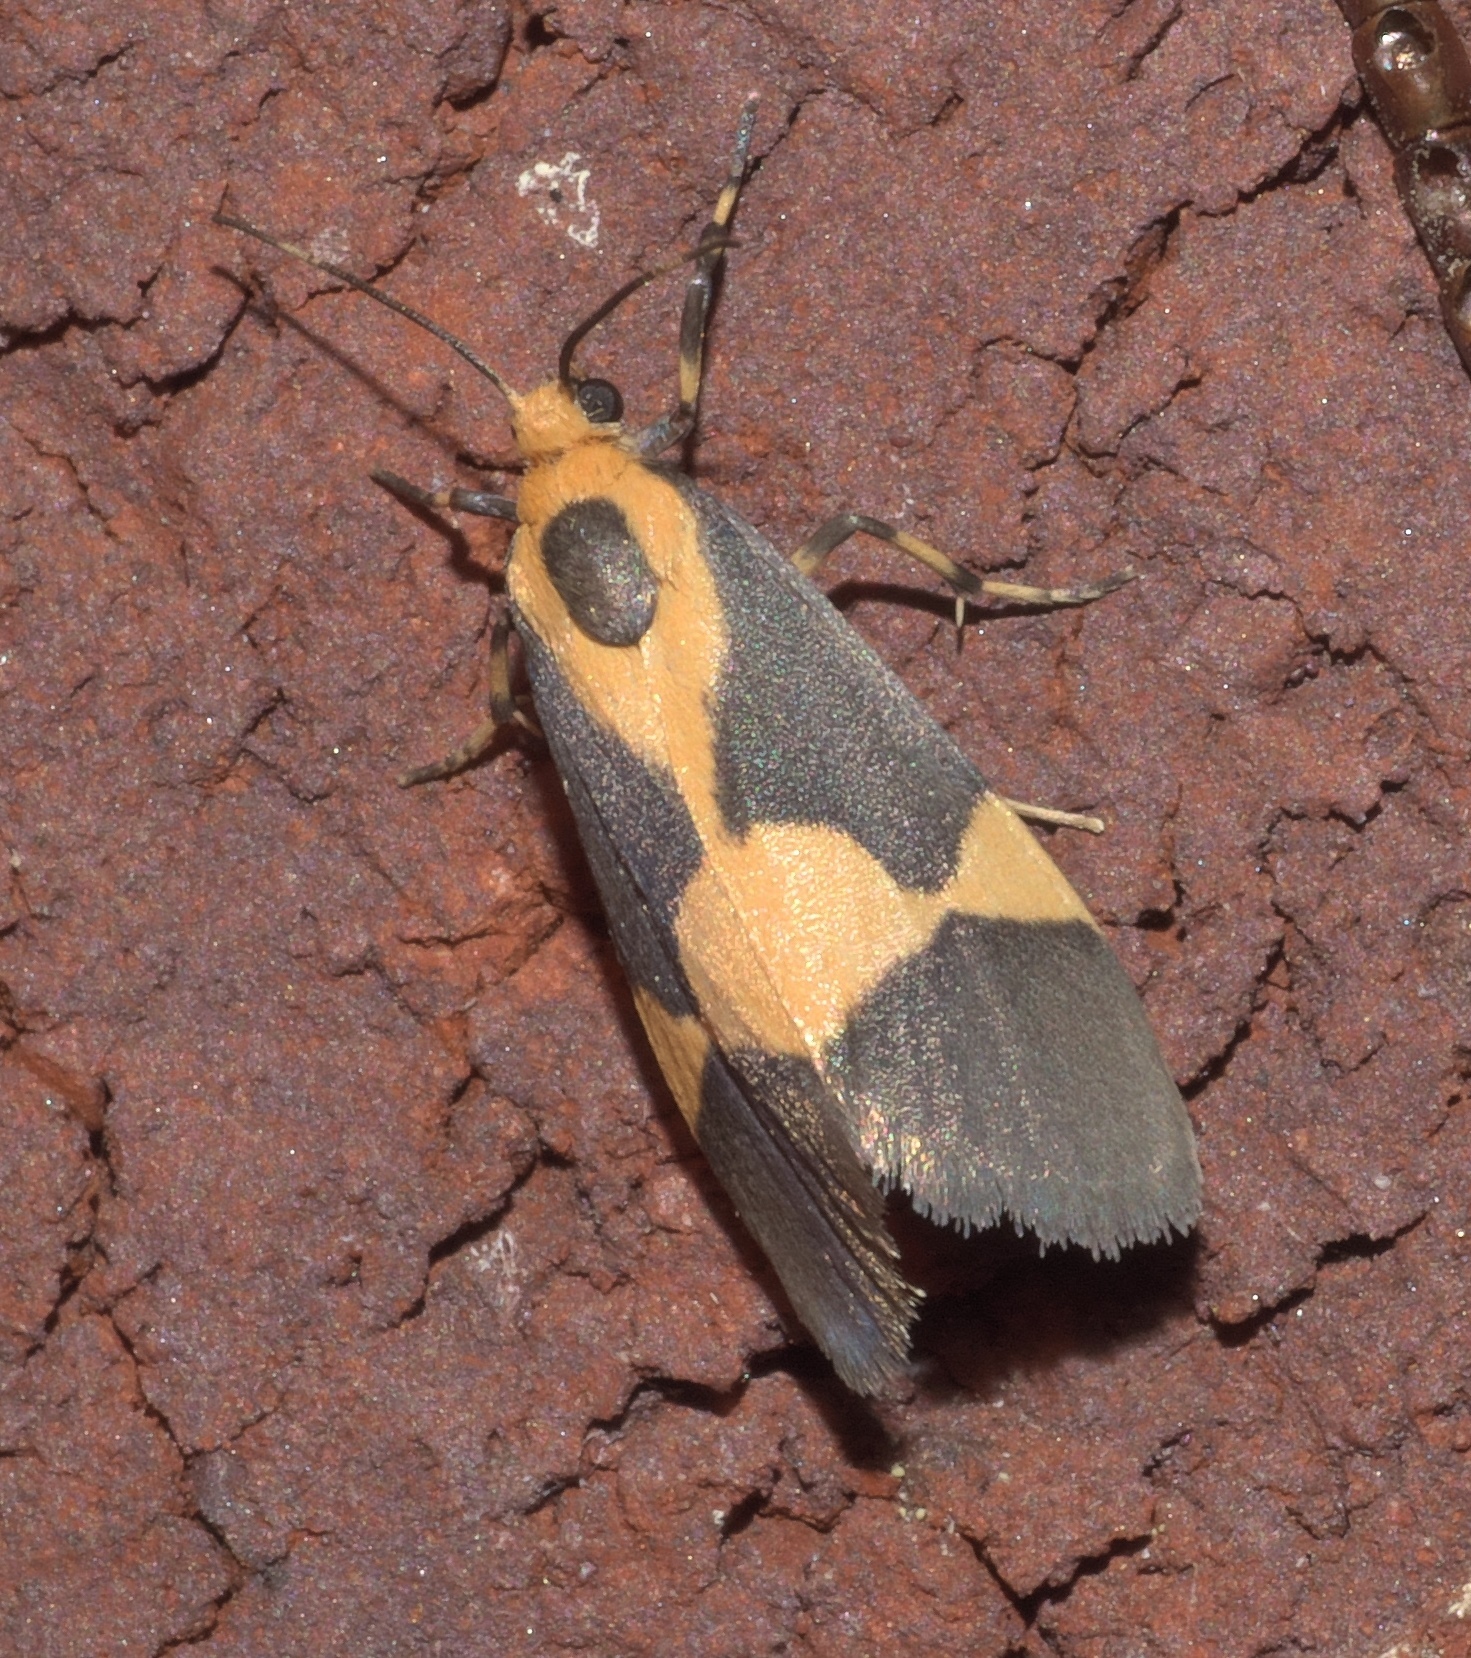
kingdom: Animalia
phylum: Arthropoda
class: Insecta
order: Lepidoptera
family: Erebidae
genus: Cisthene
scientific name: Cisthene unifascia
